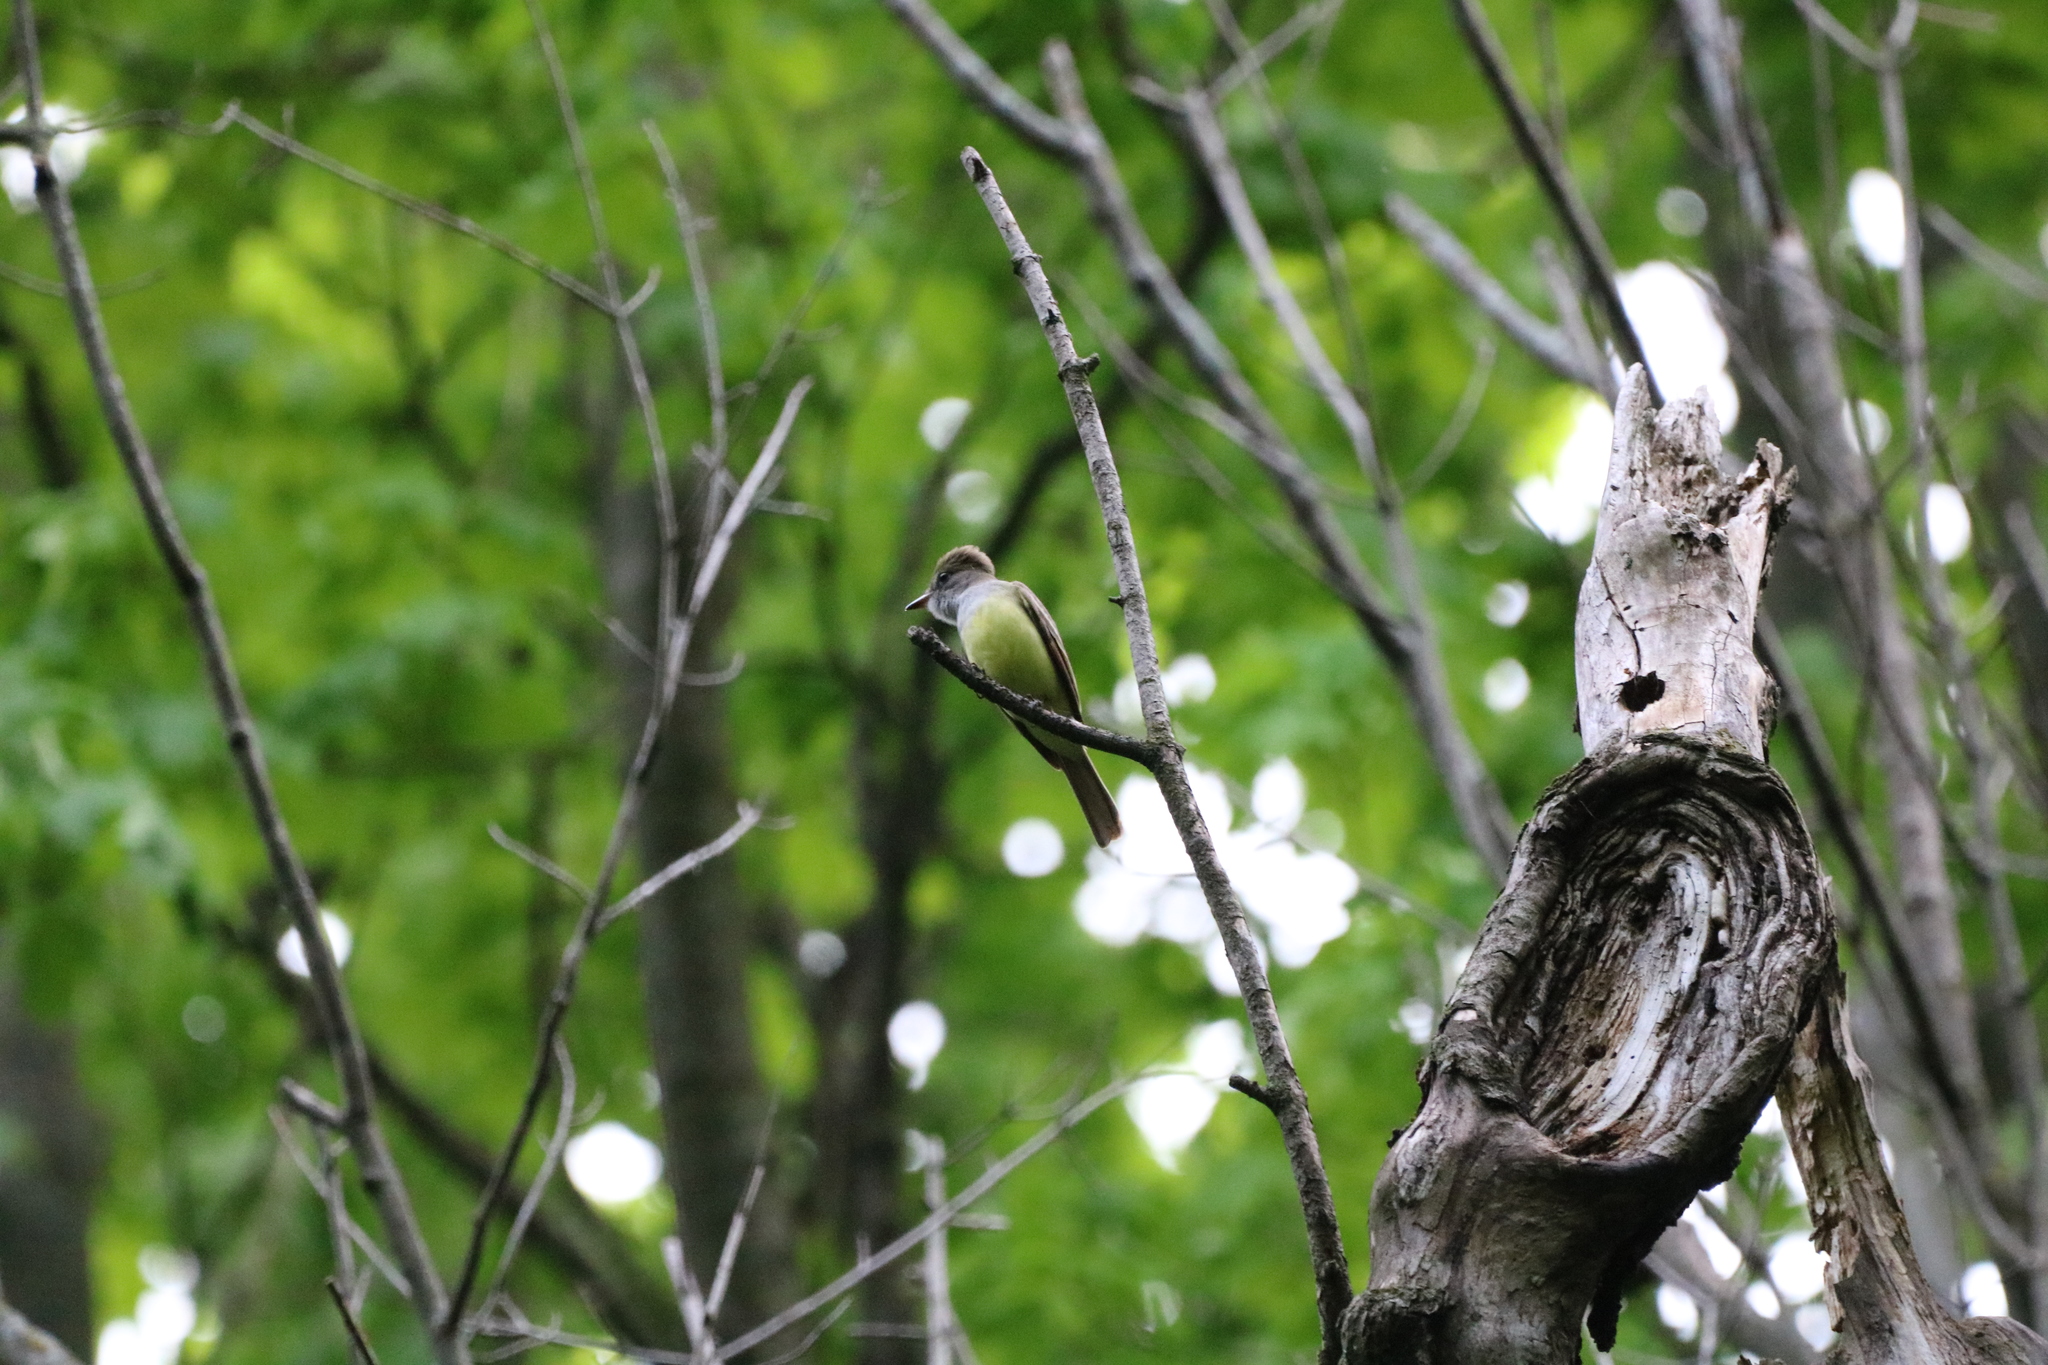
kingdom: Animalia
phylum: Chordata
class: Aves
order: Passeriformes
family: Tyrannidae
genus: Myiarchus
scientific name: Myiarchus crinitus
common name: Great crested flycatcher
